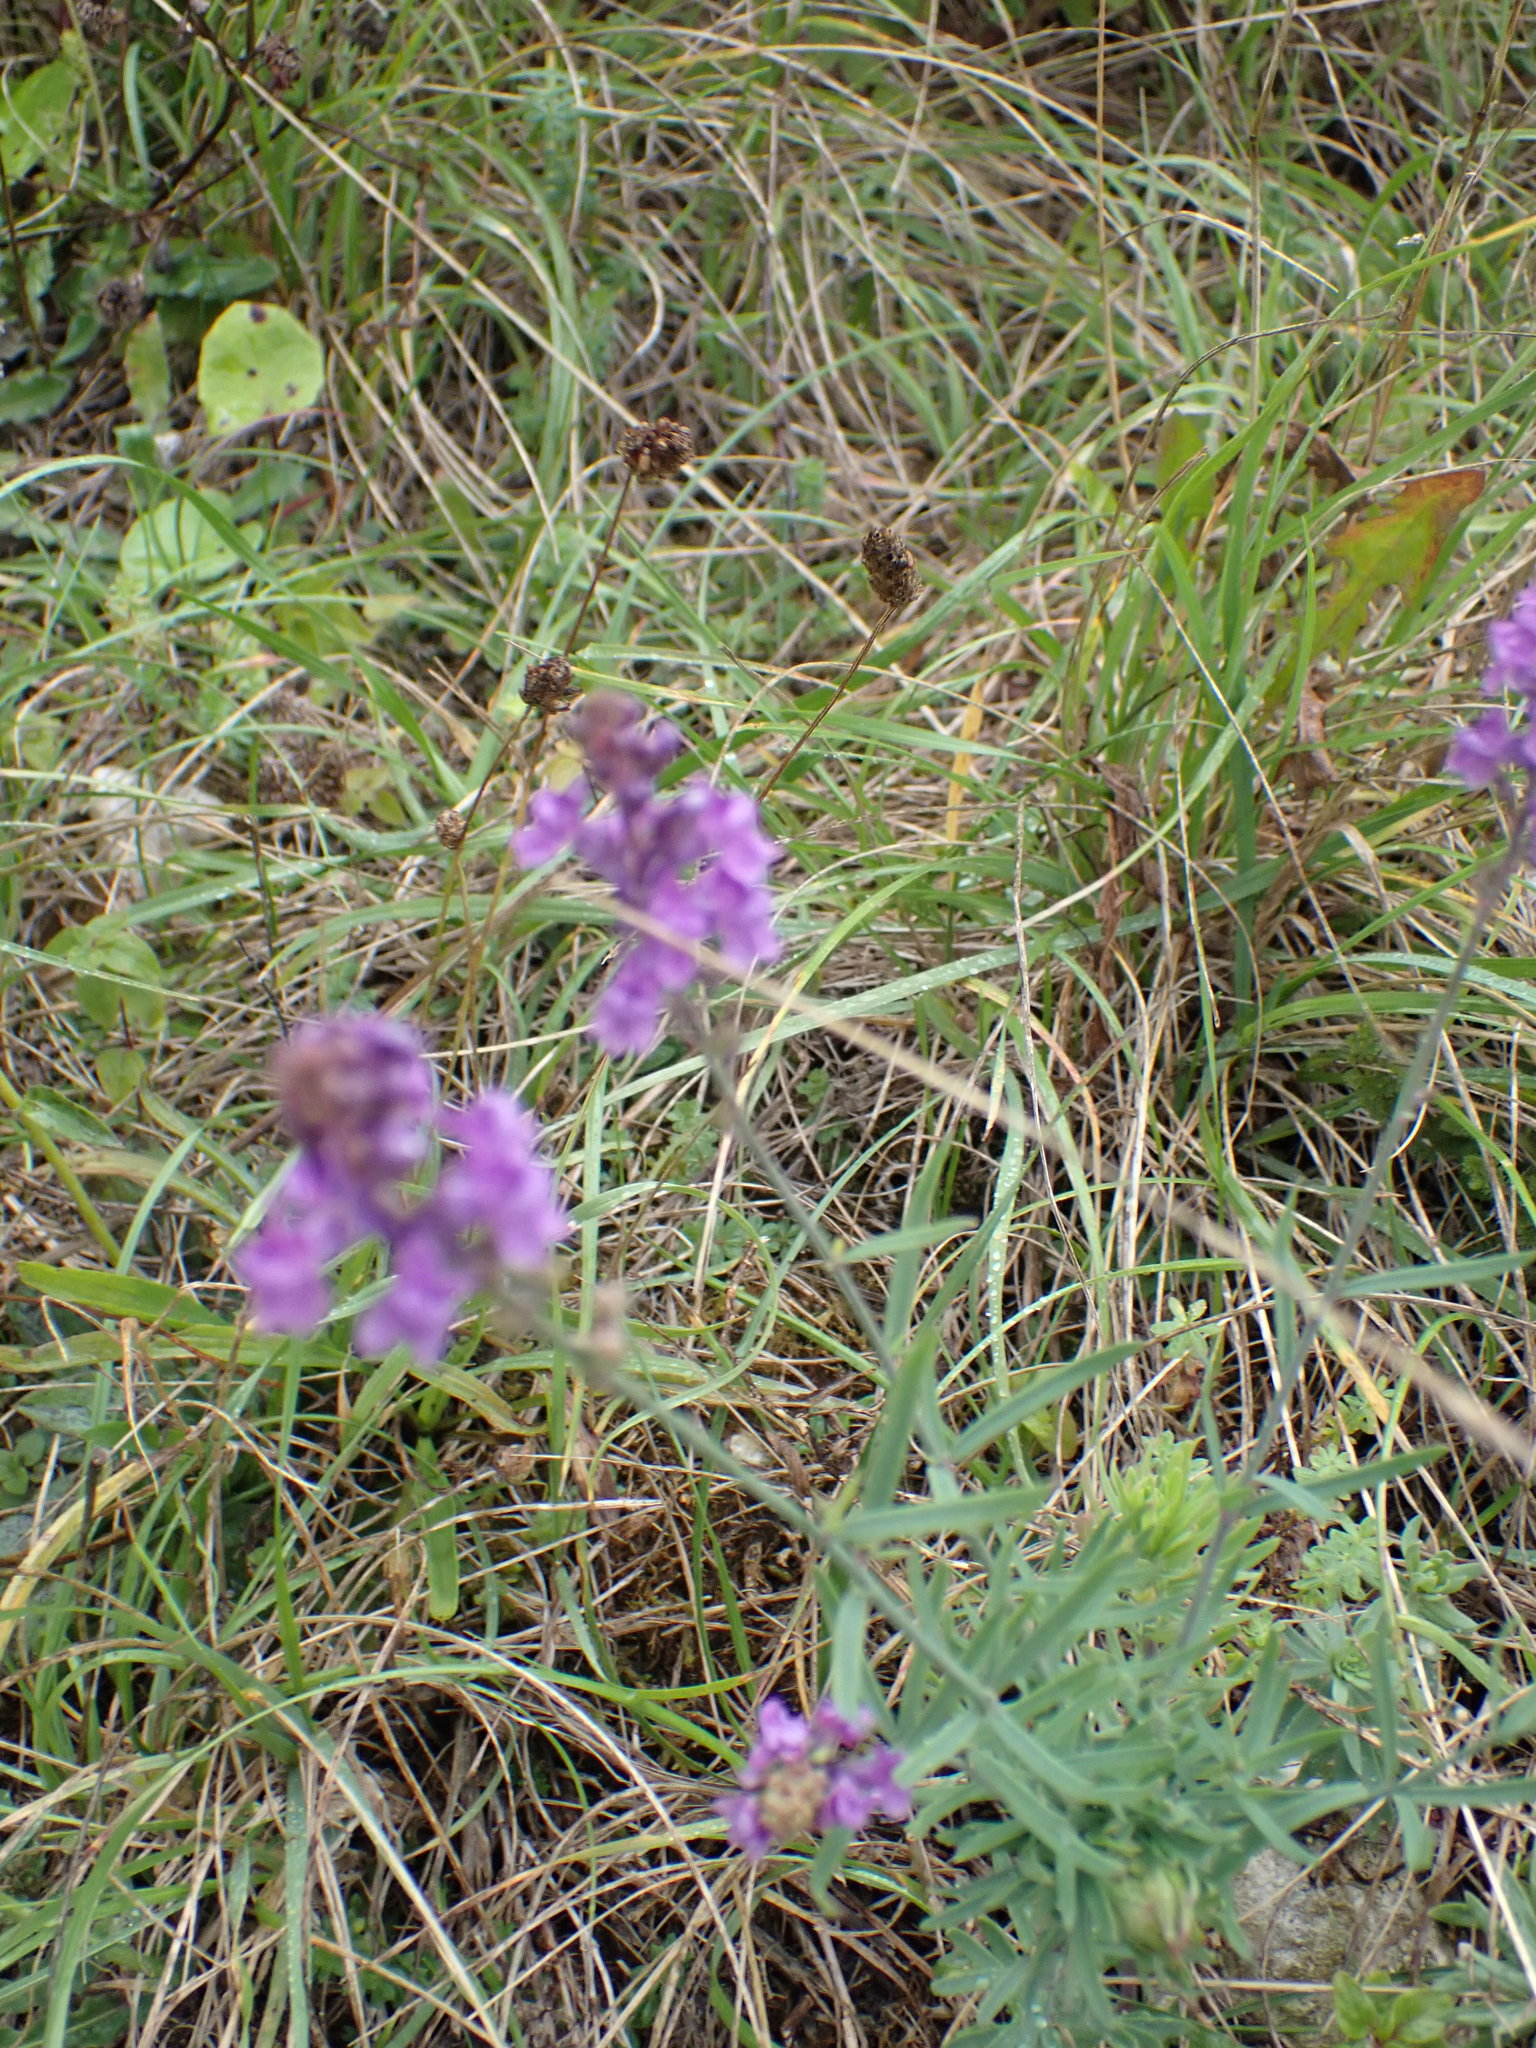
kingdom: Plantae
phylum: Tracheophyta
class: Magnoliopsida
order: Lamiales
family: Plantaginaceae
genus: Linaria
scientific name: Linaria purpurea
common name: Purple toadflax
